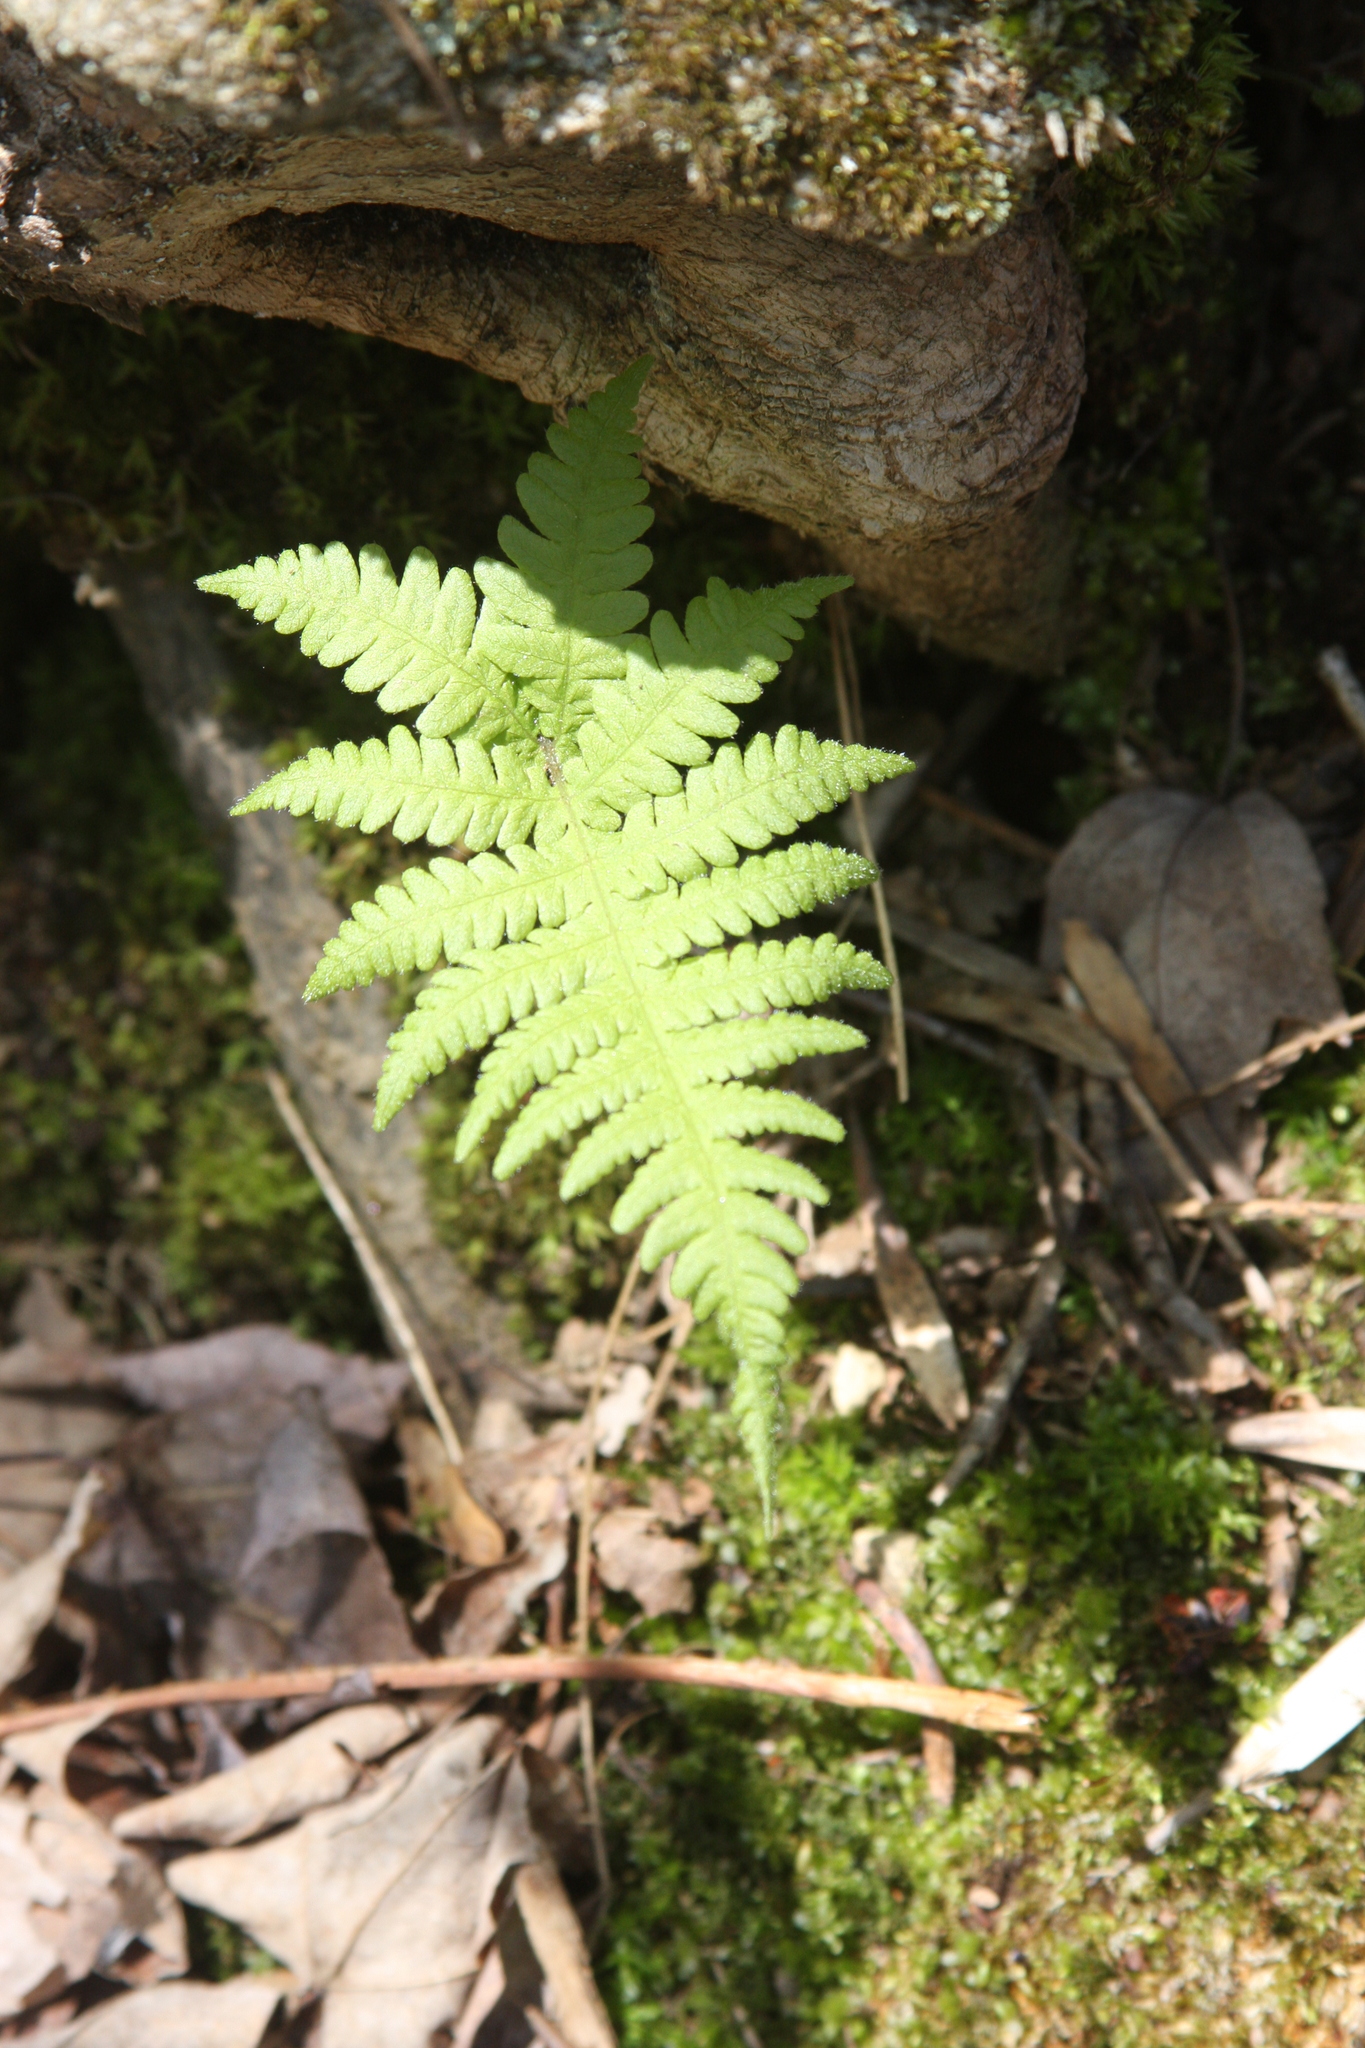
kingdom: Plantae
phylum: Tracheophyta
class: Polypodiopsida
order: Polypodiales
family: Thelypteridaceae
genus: Phegopteris
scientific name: Phegopteris connectilis
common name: Beech fern
